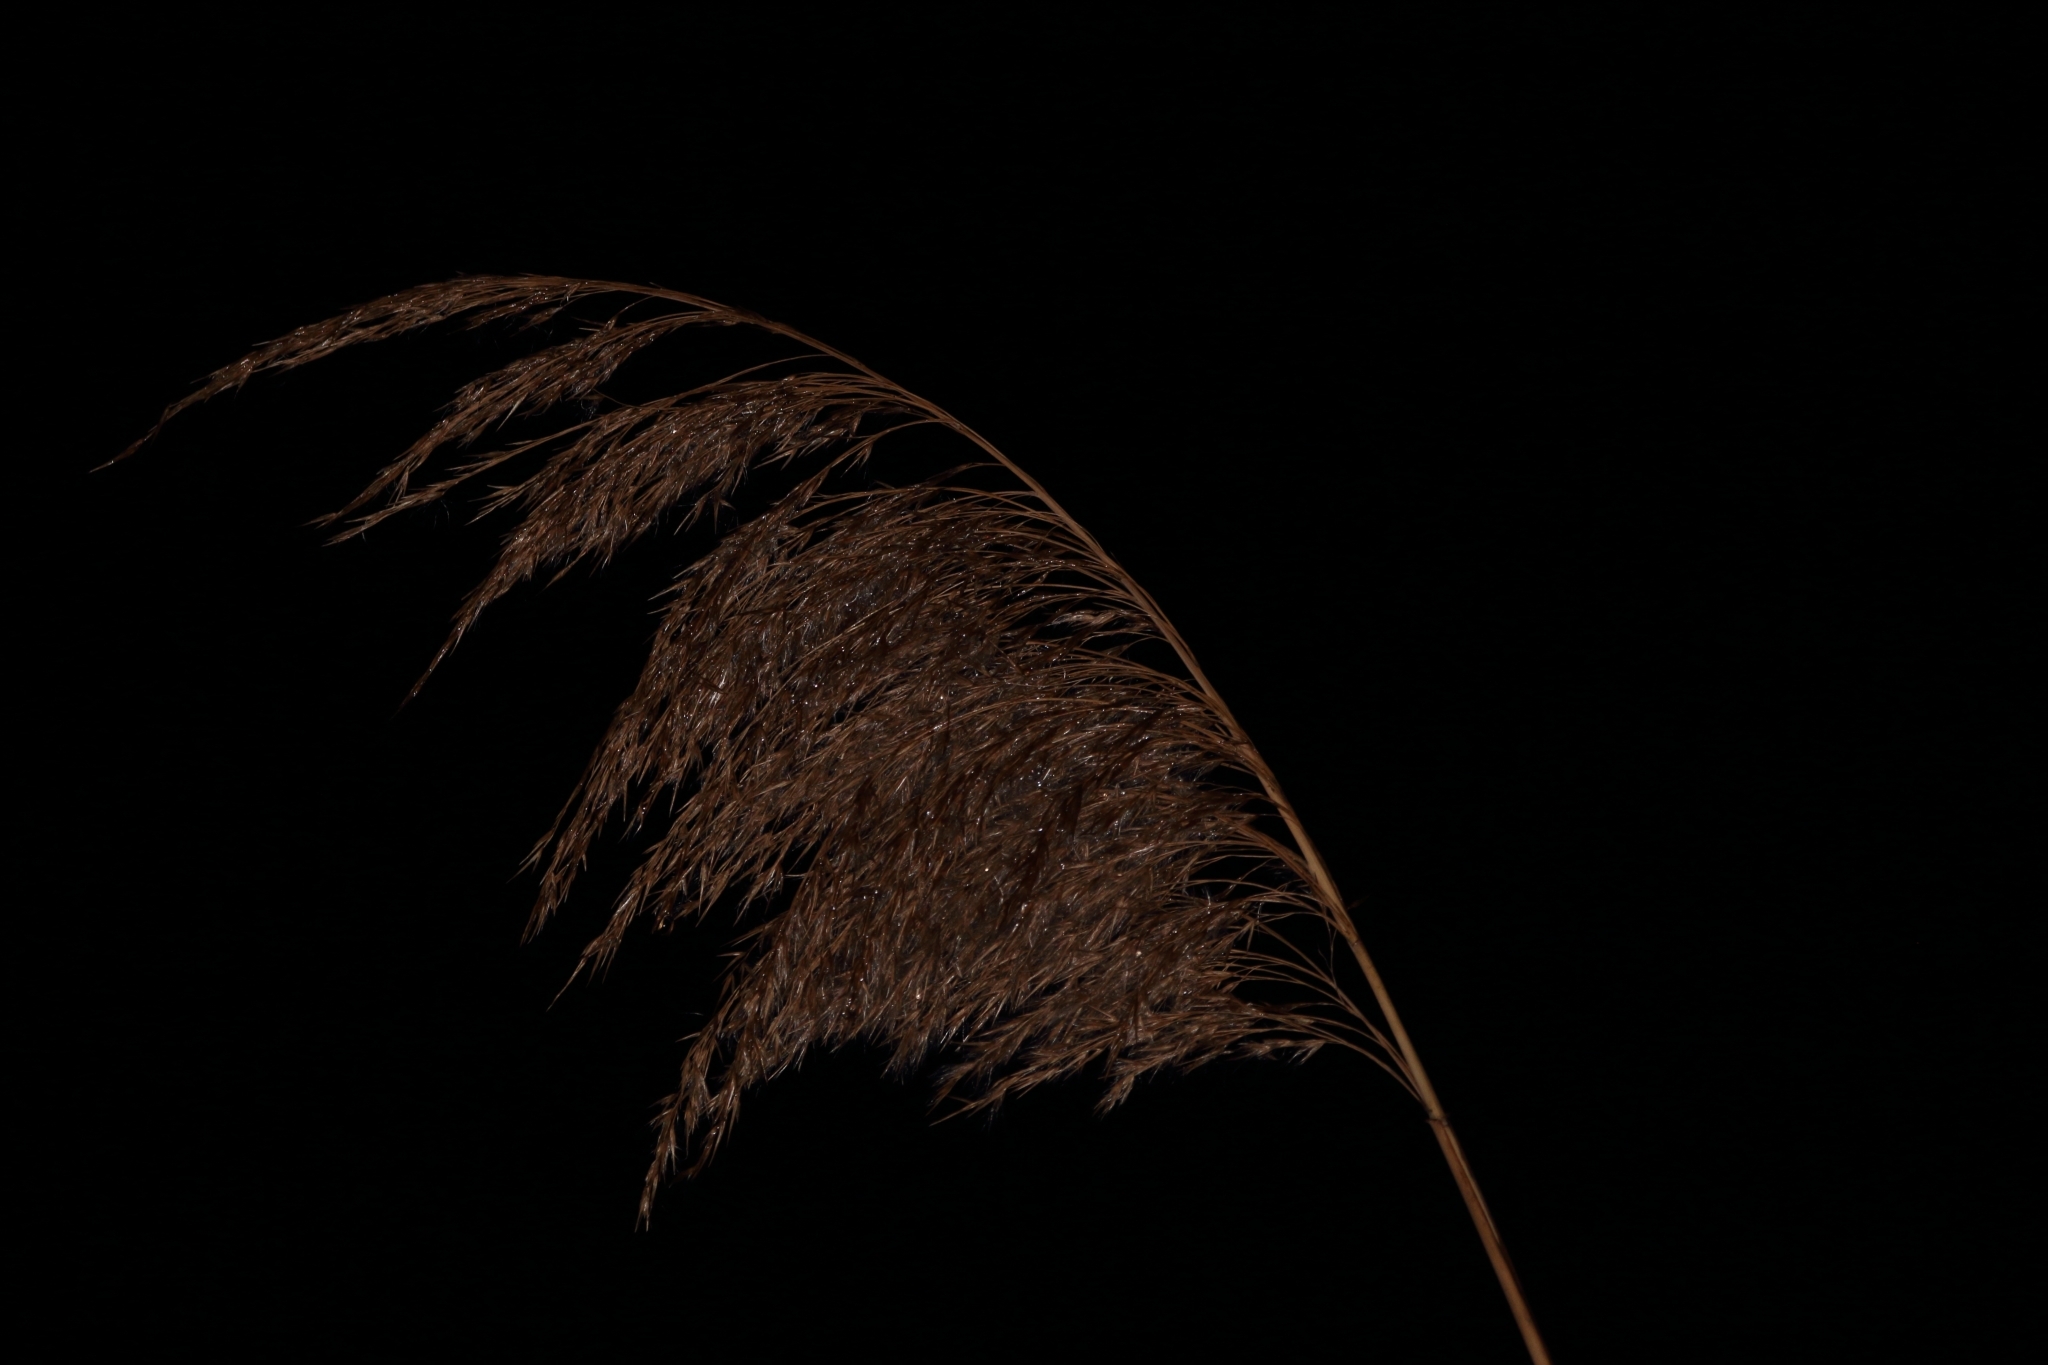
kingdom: Plantae
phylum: Tracheophyta
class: Liliopsida
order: Poales
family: Poaceae
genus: Phragmites
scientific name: Phragmites australis
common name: Common reed
